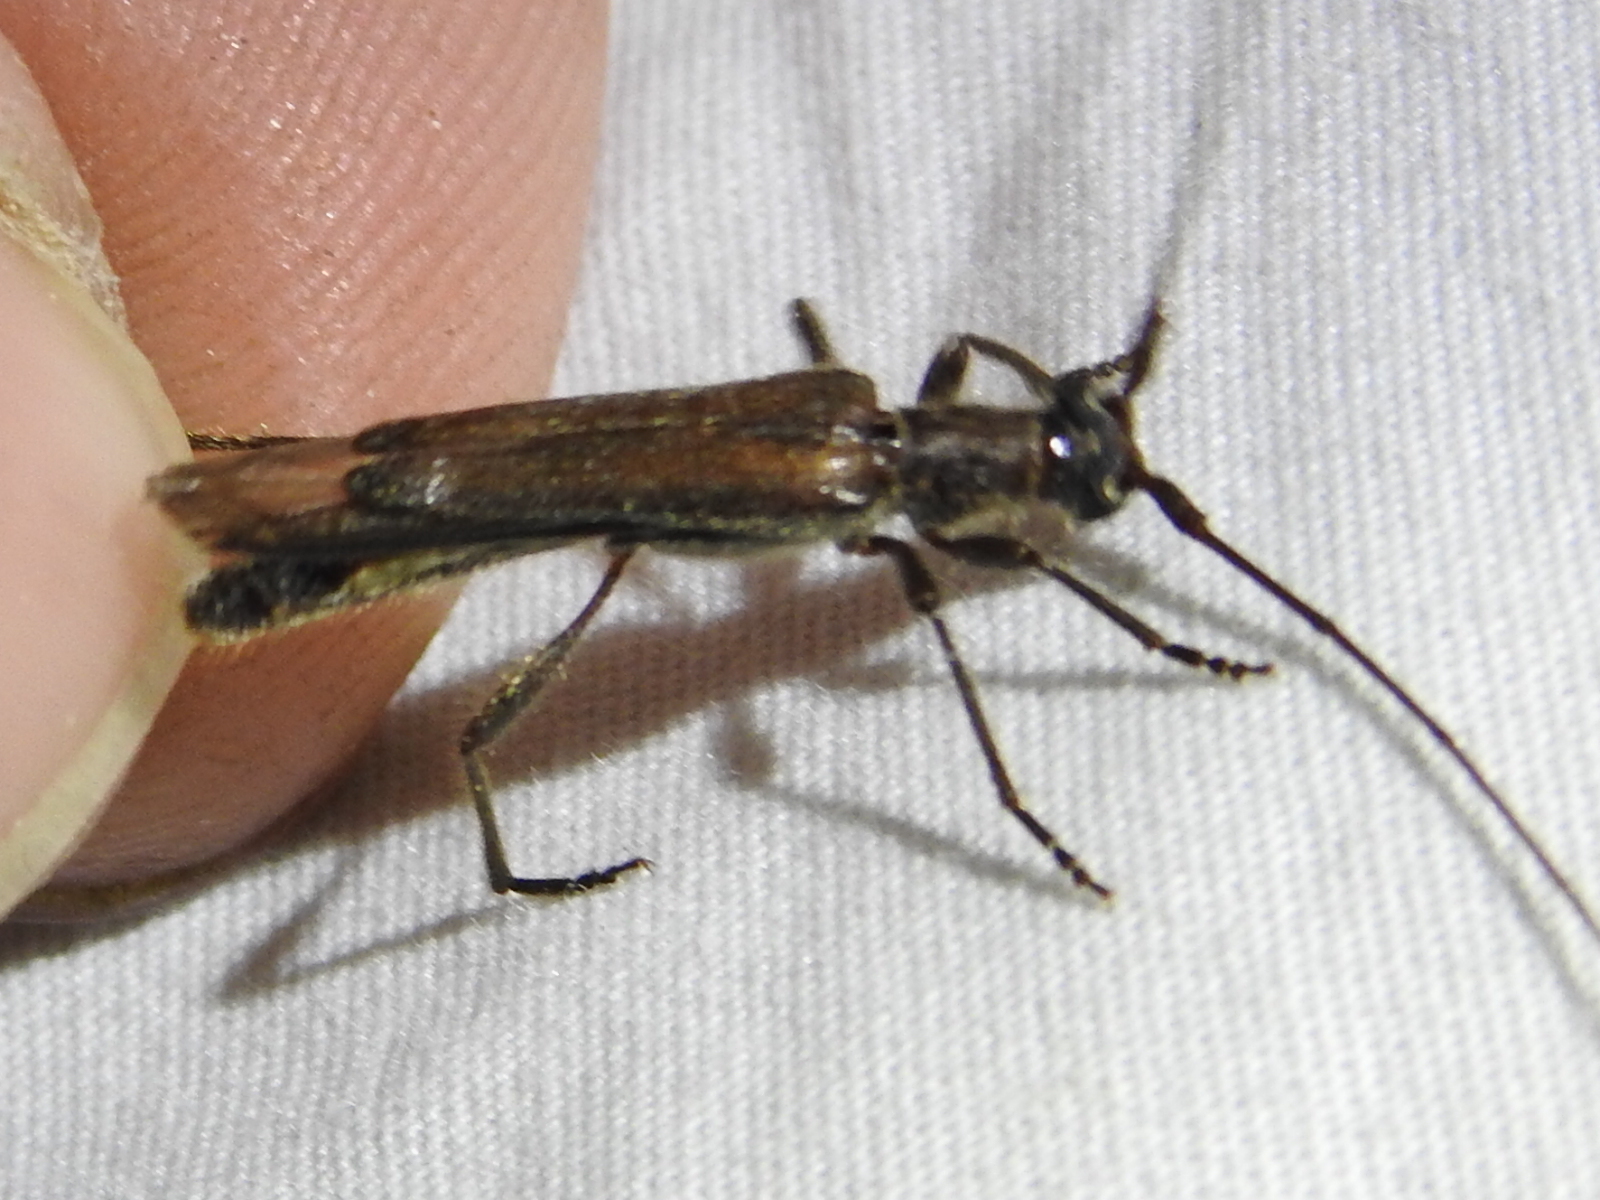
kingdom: Animalia
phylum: Arthropoda
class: Insecta
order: Coleoptera
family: Cerambycidae
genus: Styloxus
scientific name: Styloxus fulleri
